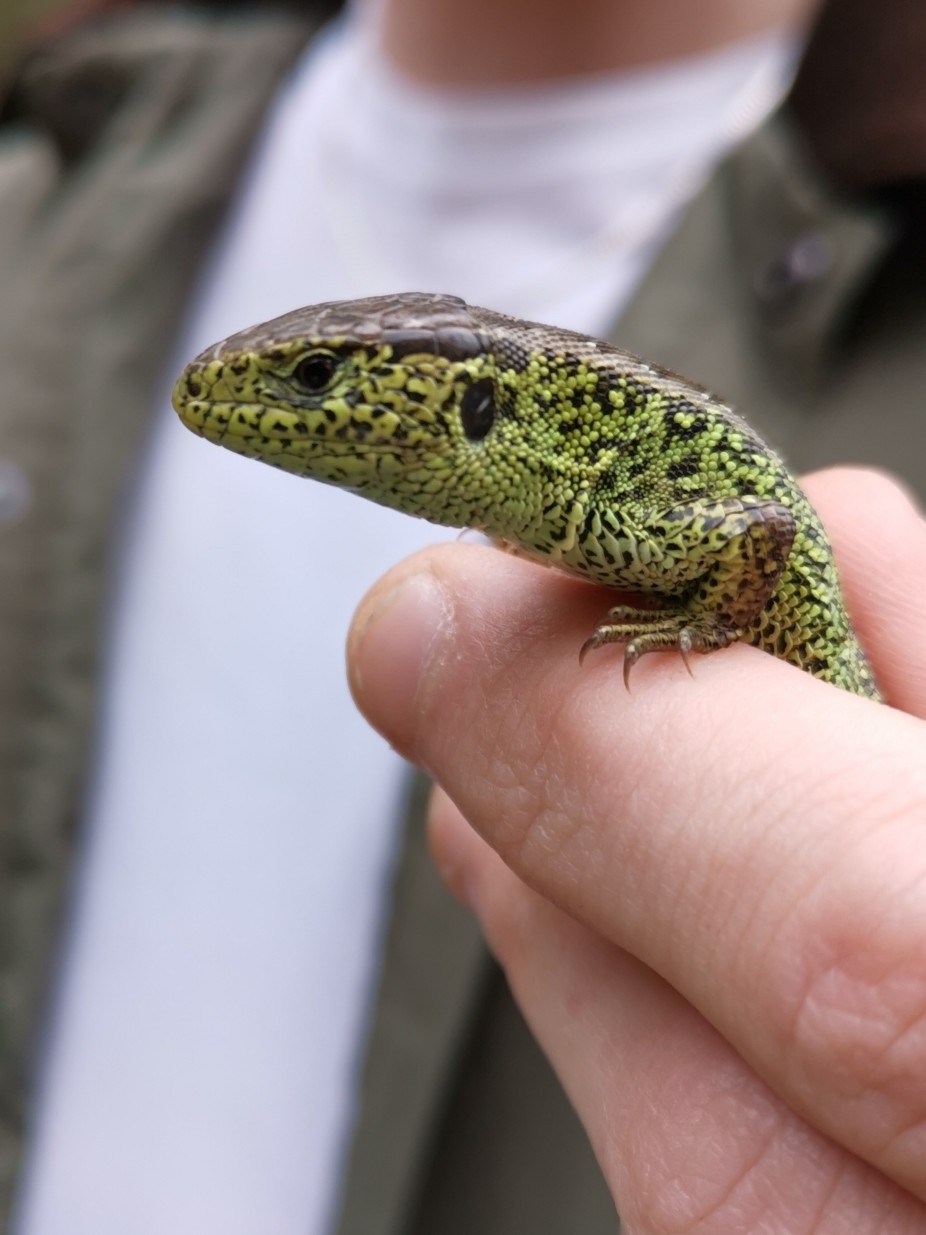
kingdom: Animalia
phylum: Chordata
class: Squamata
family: Lacertidae
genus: Lacerta
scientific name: Lacerta agilis
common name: Sand lizard
